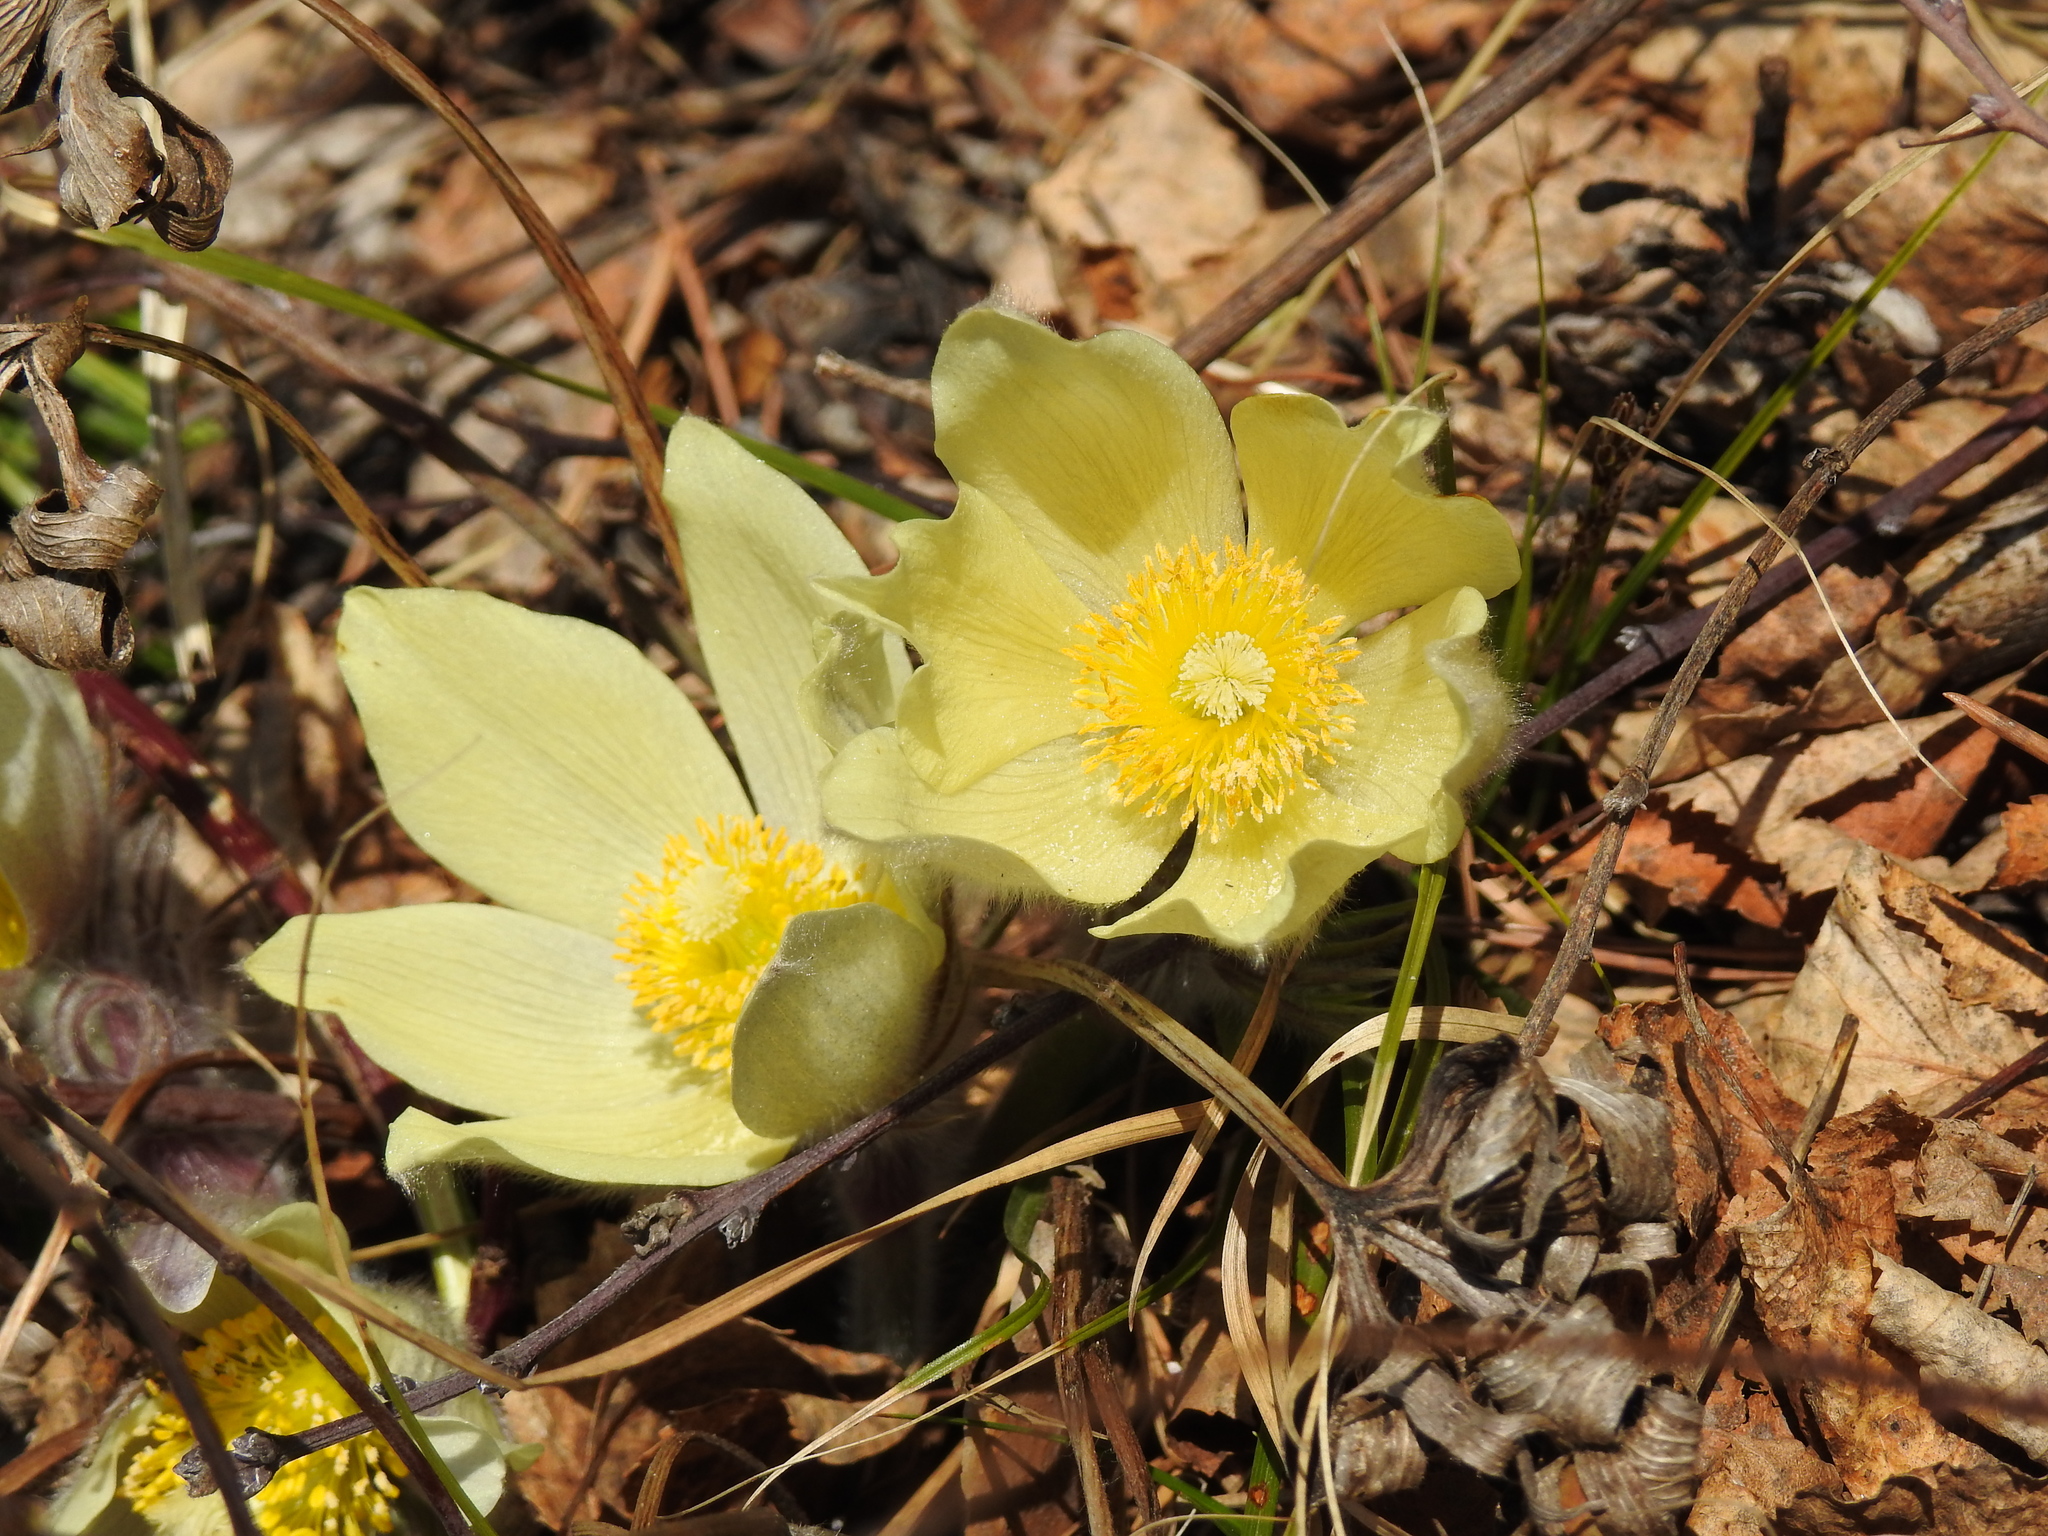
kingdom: Plantae
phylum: Tracheophyta
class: Magnoliopsida
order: Ranunculales
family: Ranunculaceae
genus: Pulsatilla
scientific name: Pulsatilla patens
